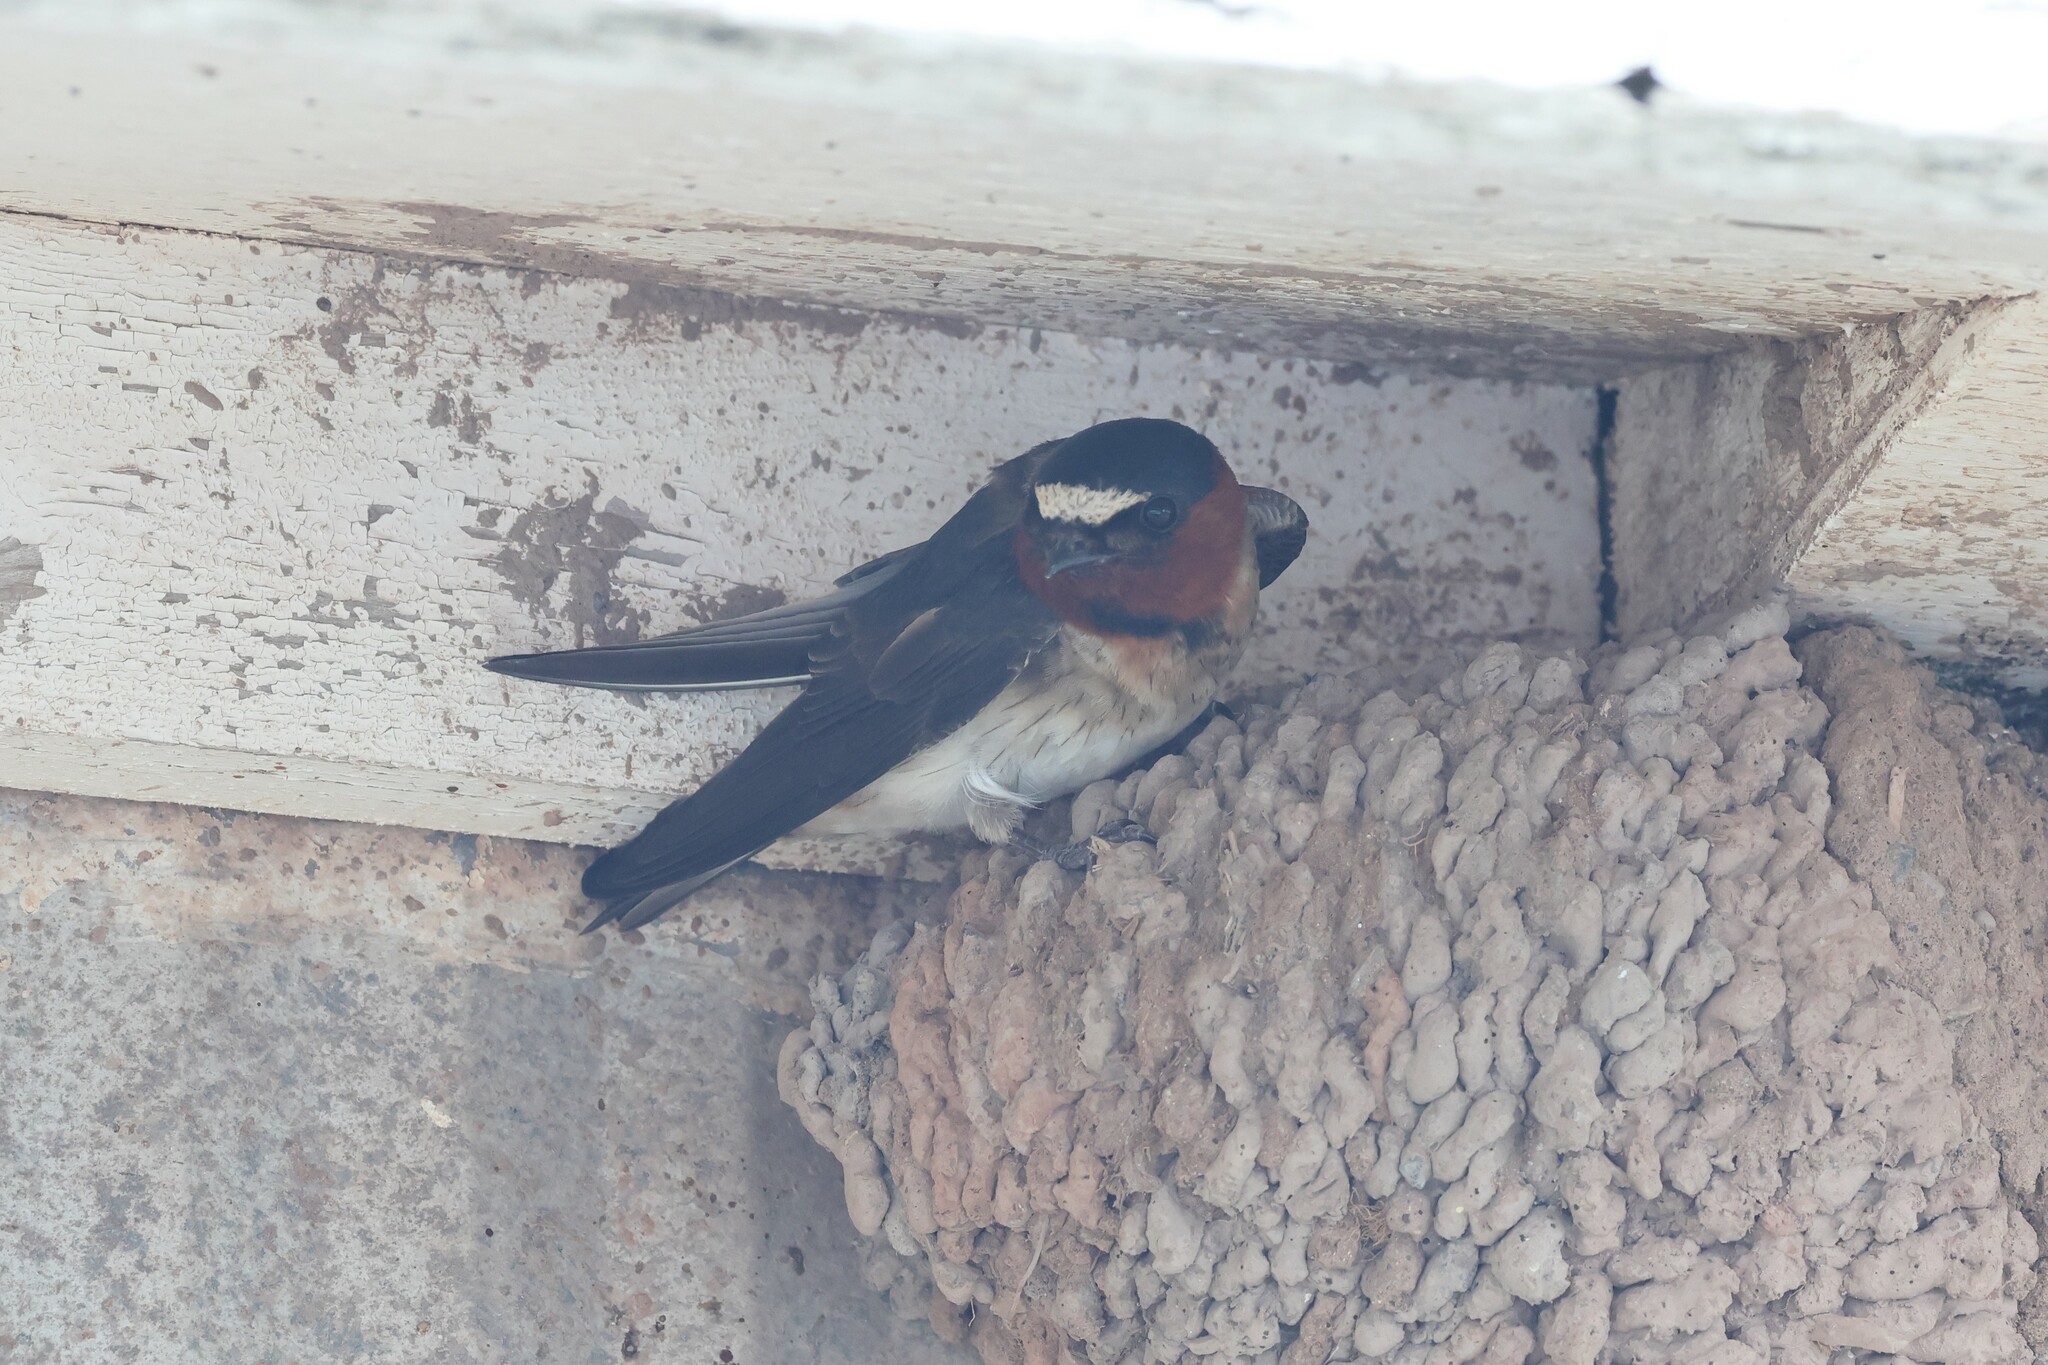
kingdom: Animalia
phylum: Chordata
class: Aves
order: Passeriformes
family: Hirundinidae
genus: Petrochelidon
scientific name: Petrochelidon pyrrhonota
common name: American cliff swallow
